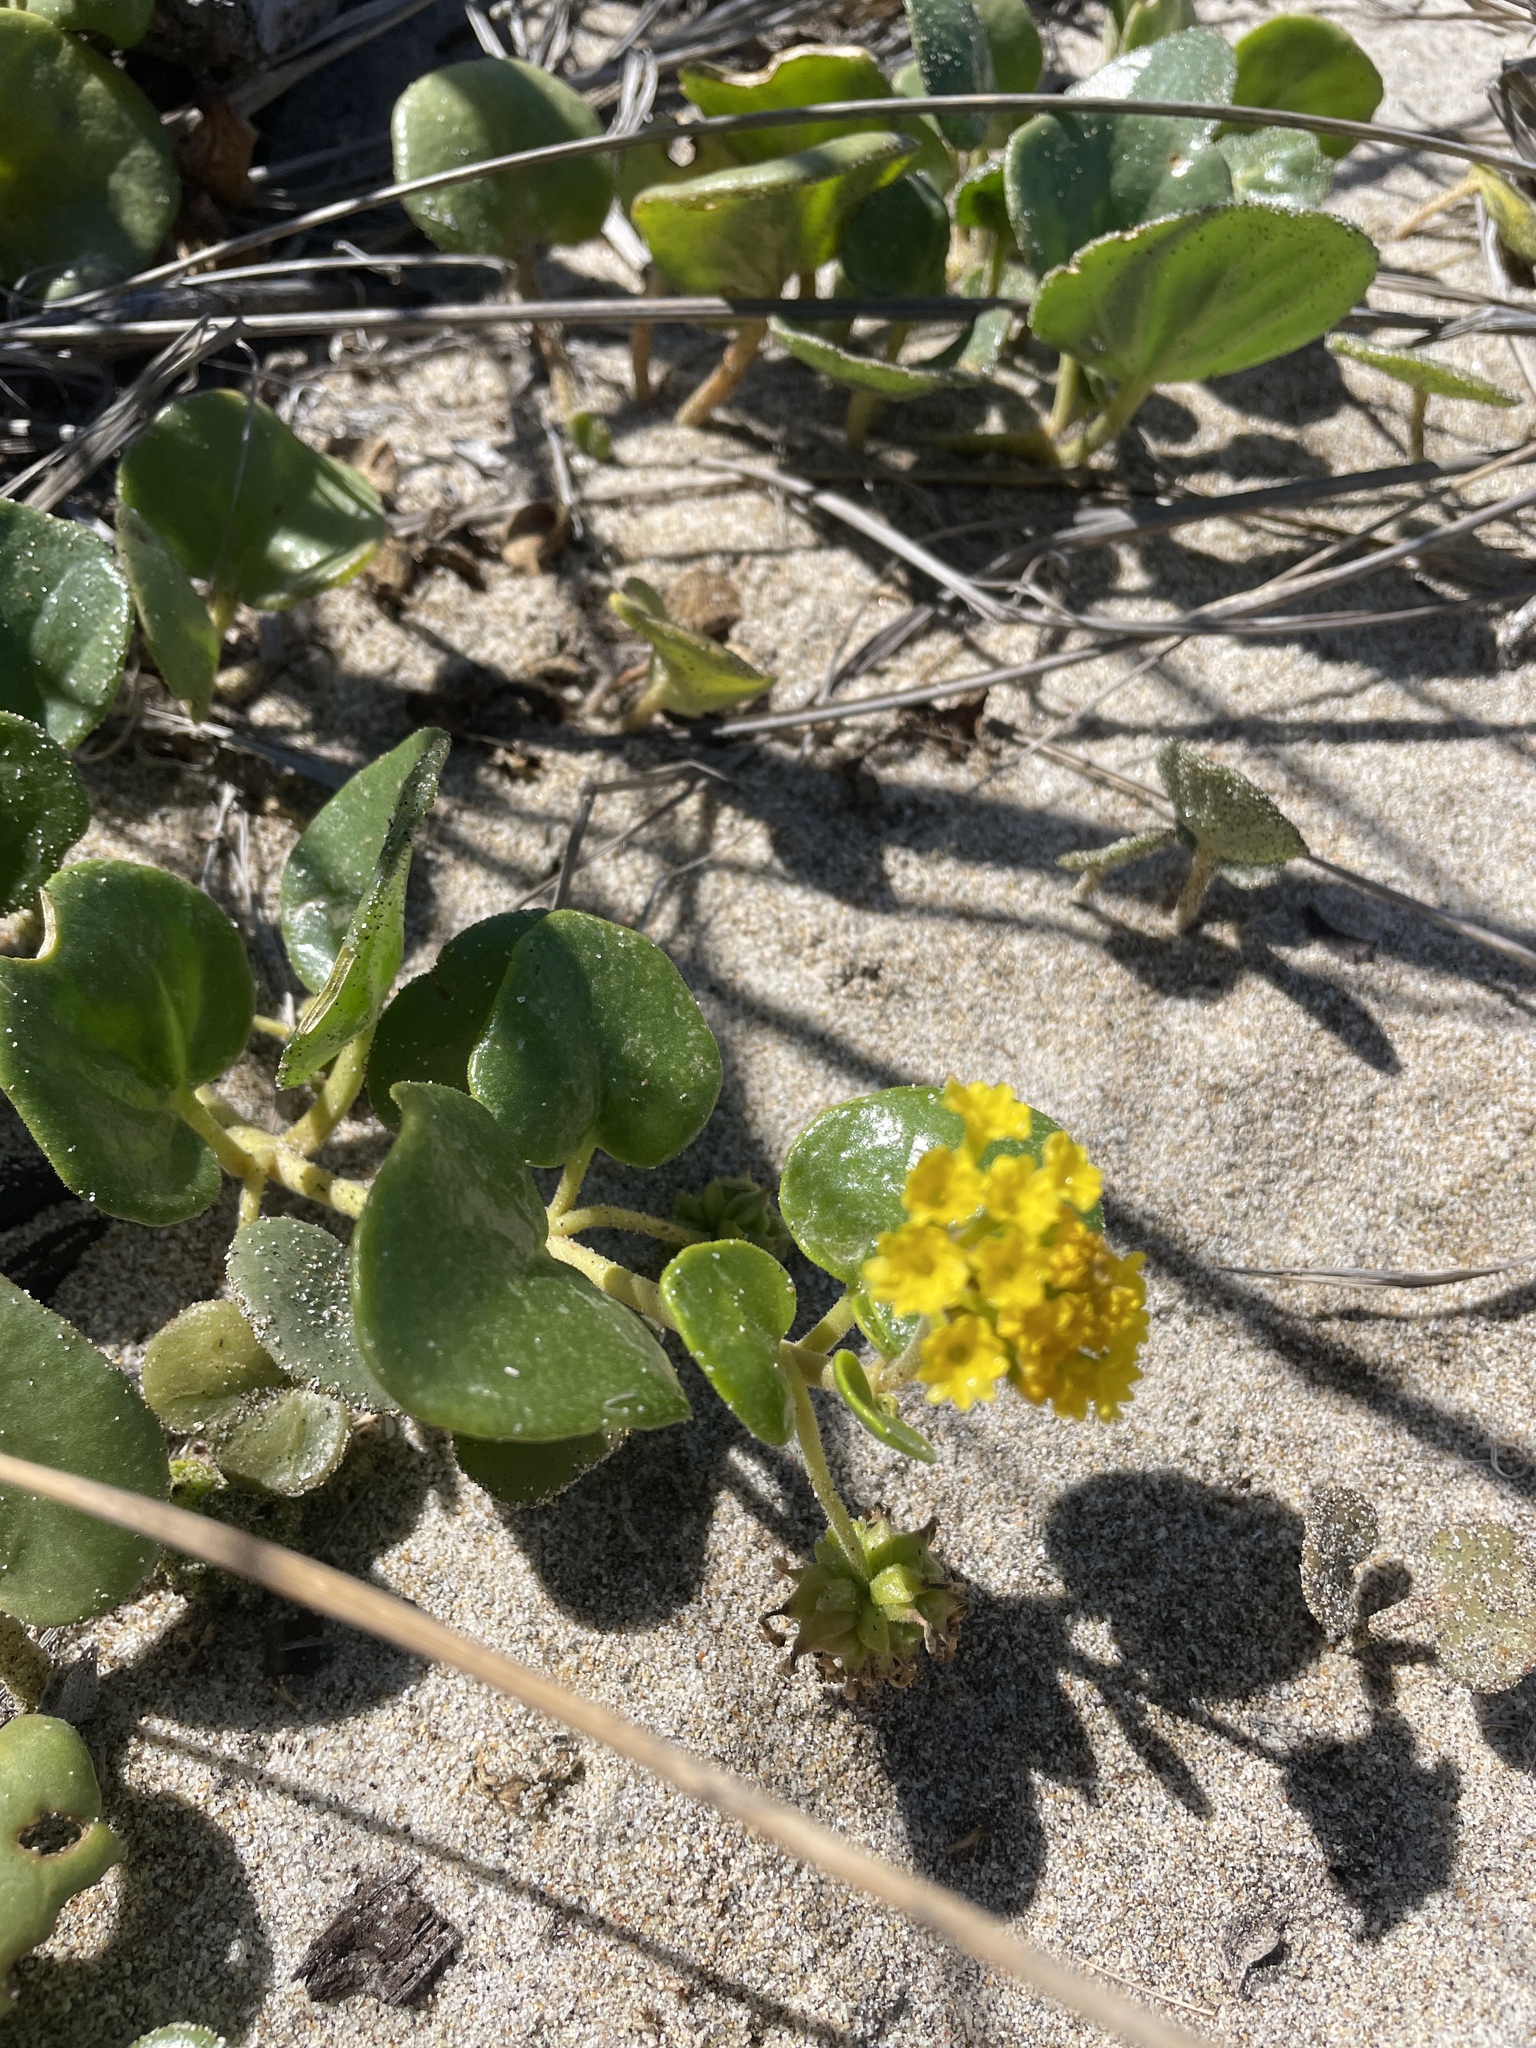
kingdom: Plantae
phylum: Tracheophyta
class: Magnoliopsida
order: Caryophyllales
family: Nyctaginaceae
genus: Abronia
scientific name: Abronia latifolia
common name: Yellow sand-verbena
